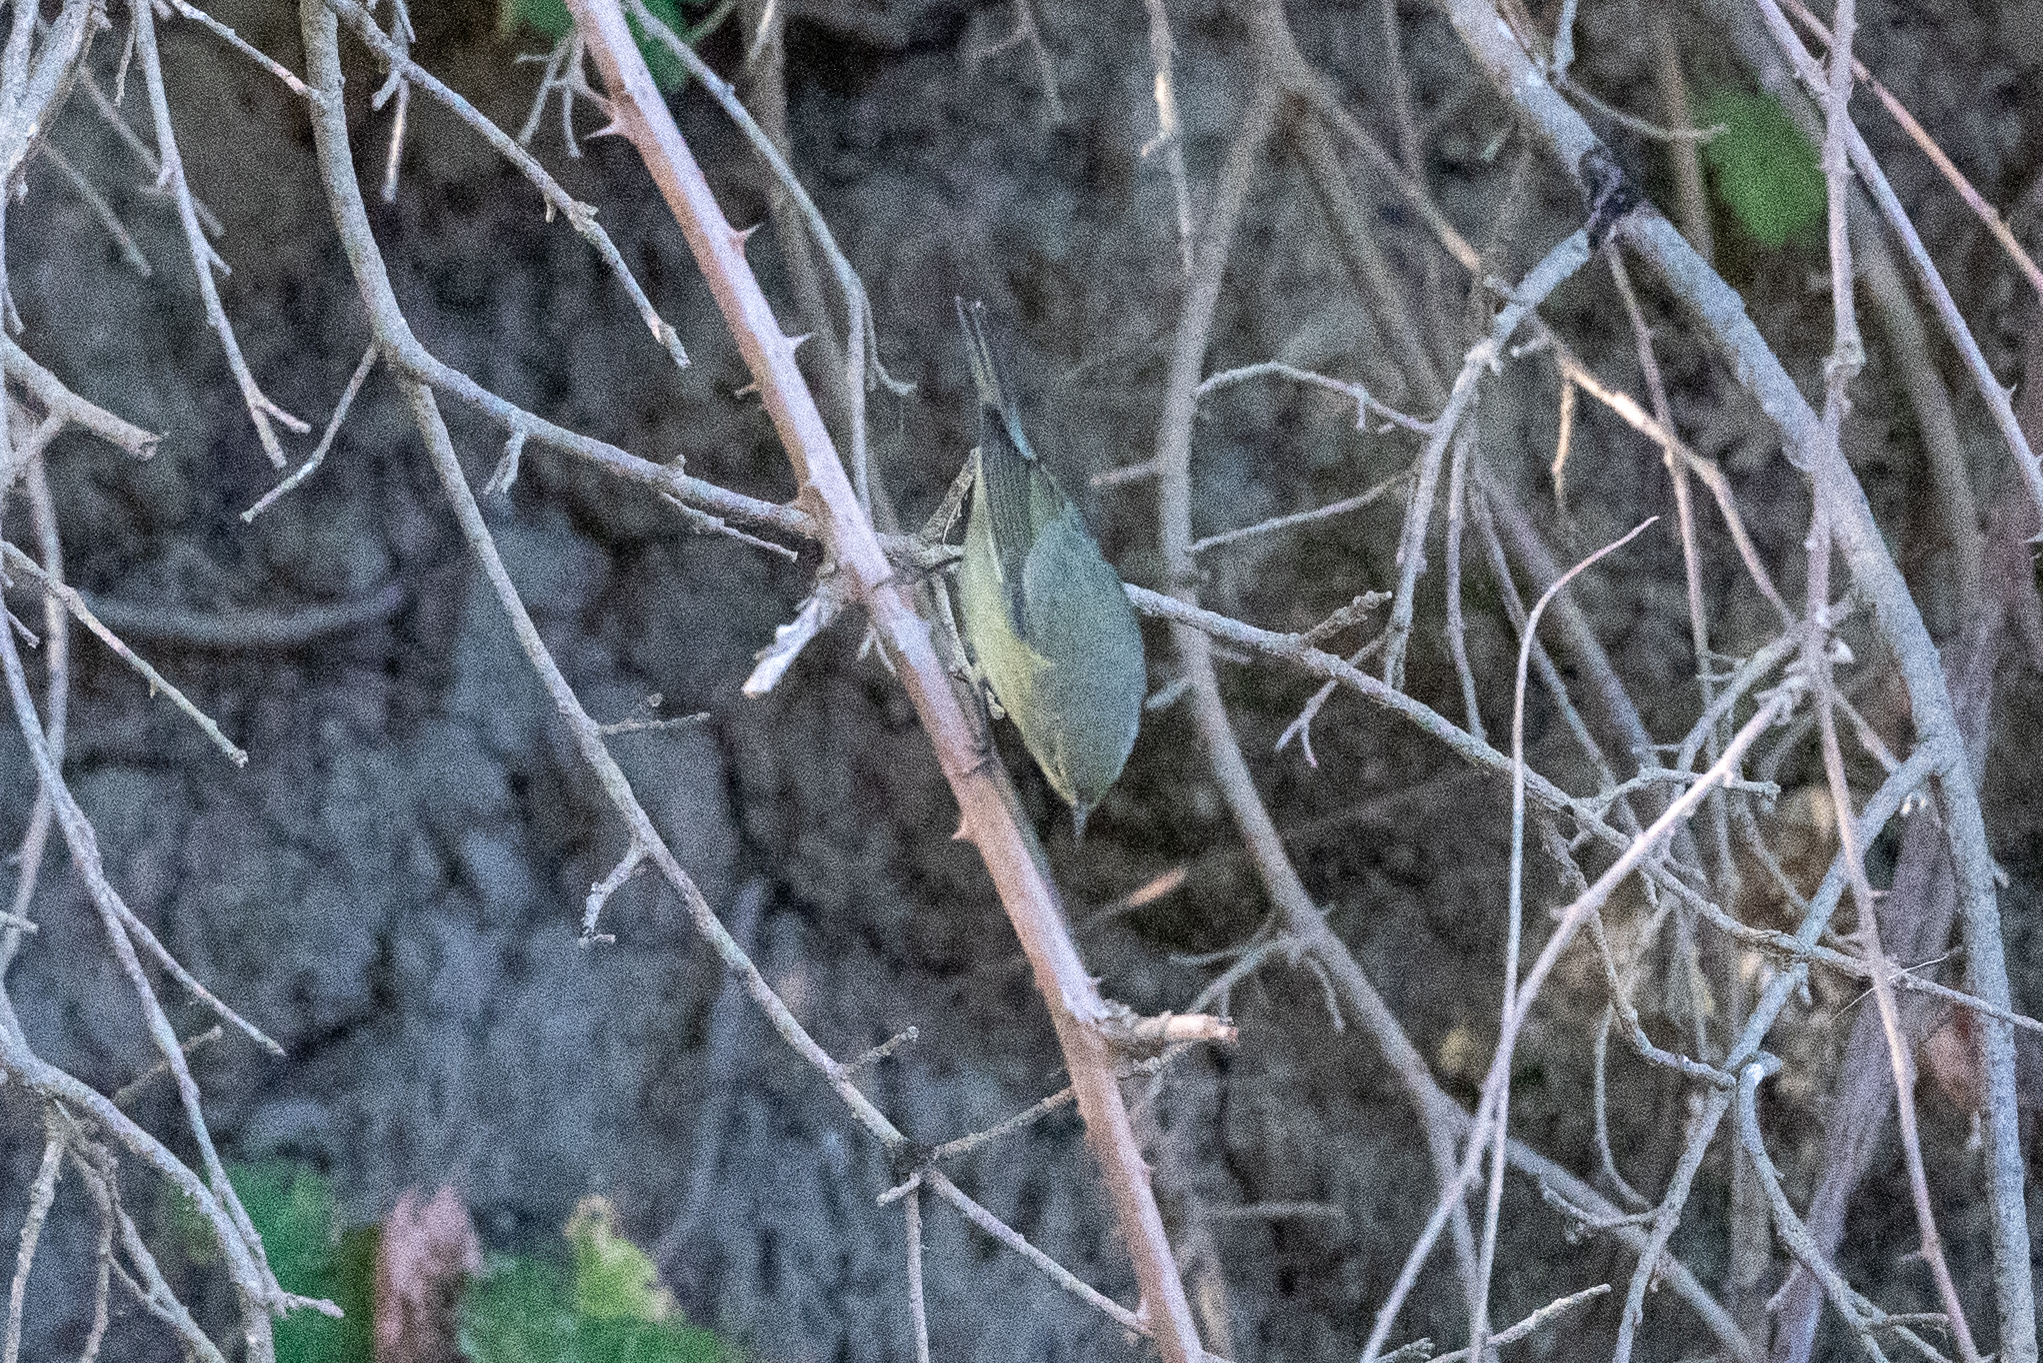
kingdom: Animalia
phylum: Chordata
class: Aves
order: Passeriformes
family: Parulidae
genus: Leiothlypis
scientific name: Leiothlypis celata
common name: Orange-crowned warbler
